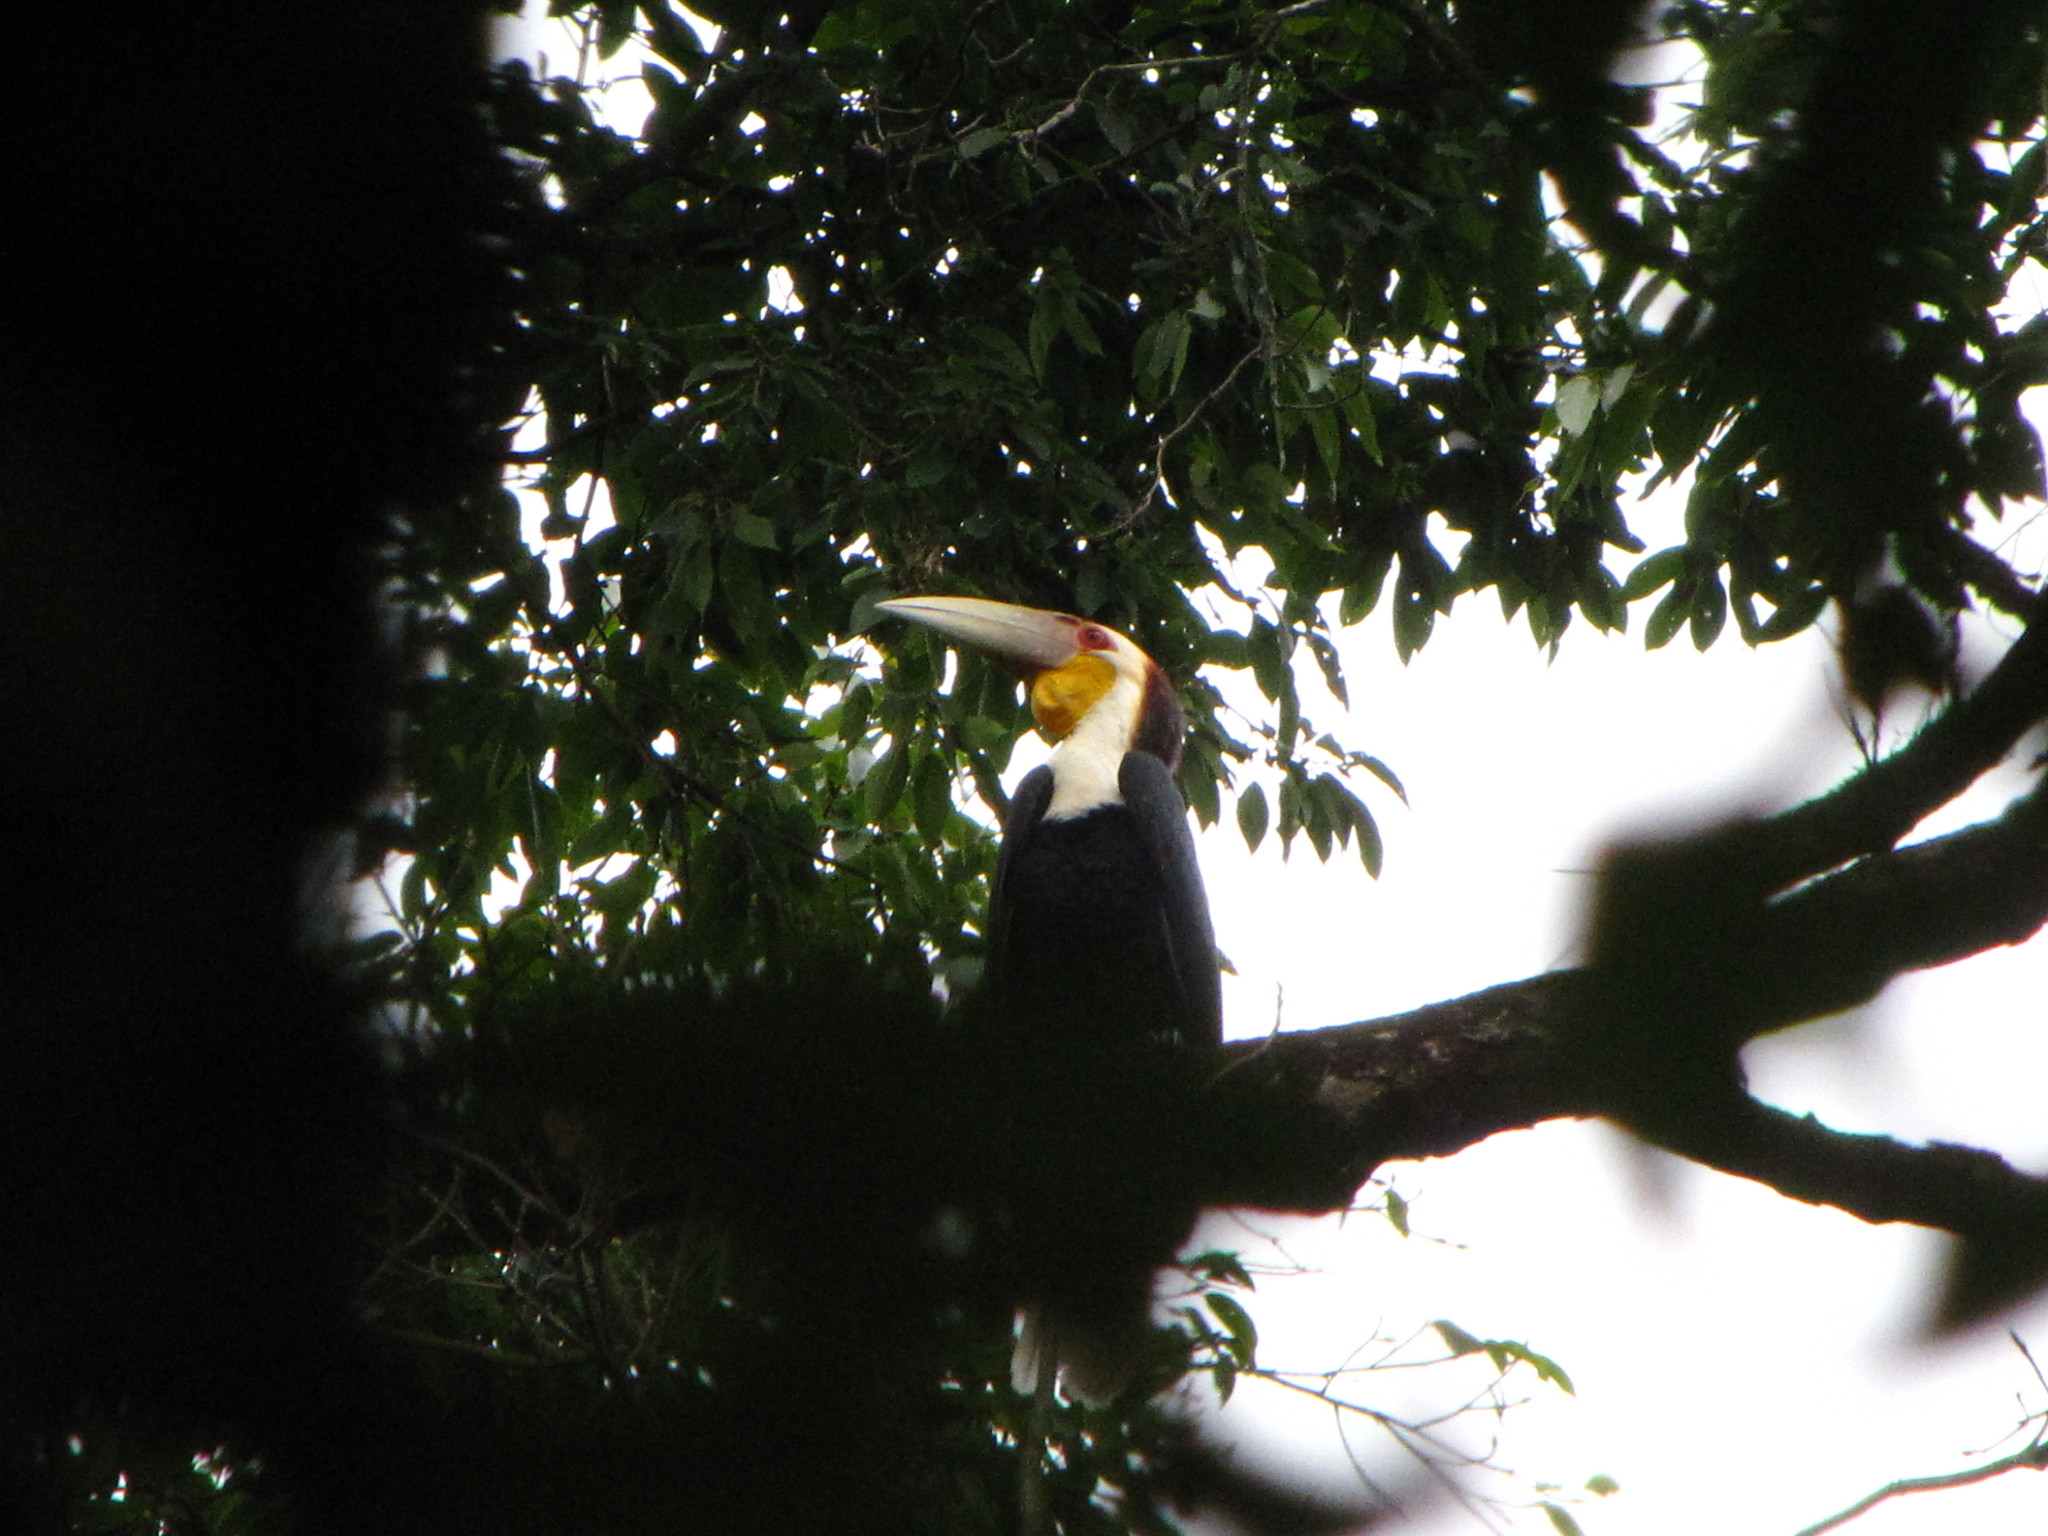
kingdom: Animalia
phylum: Chordata
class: Aves
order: Bucerotiformes
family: Bucerotidae
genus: Rhyticeros
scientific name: Rhyticeros undulatus
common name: Wreathed hornbill
